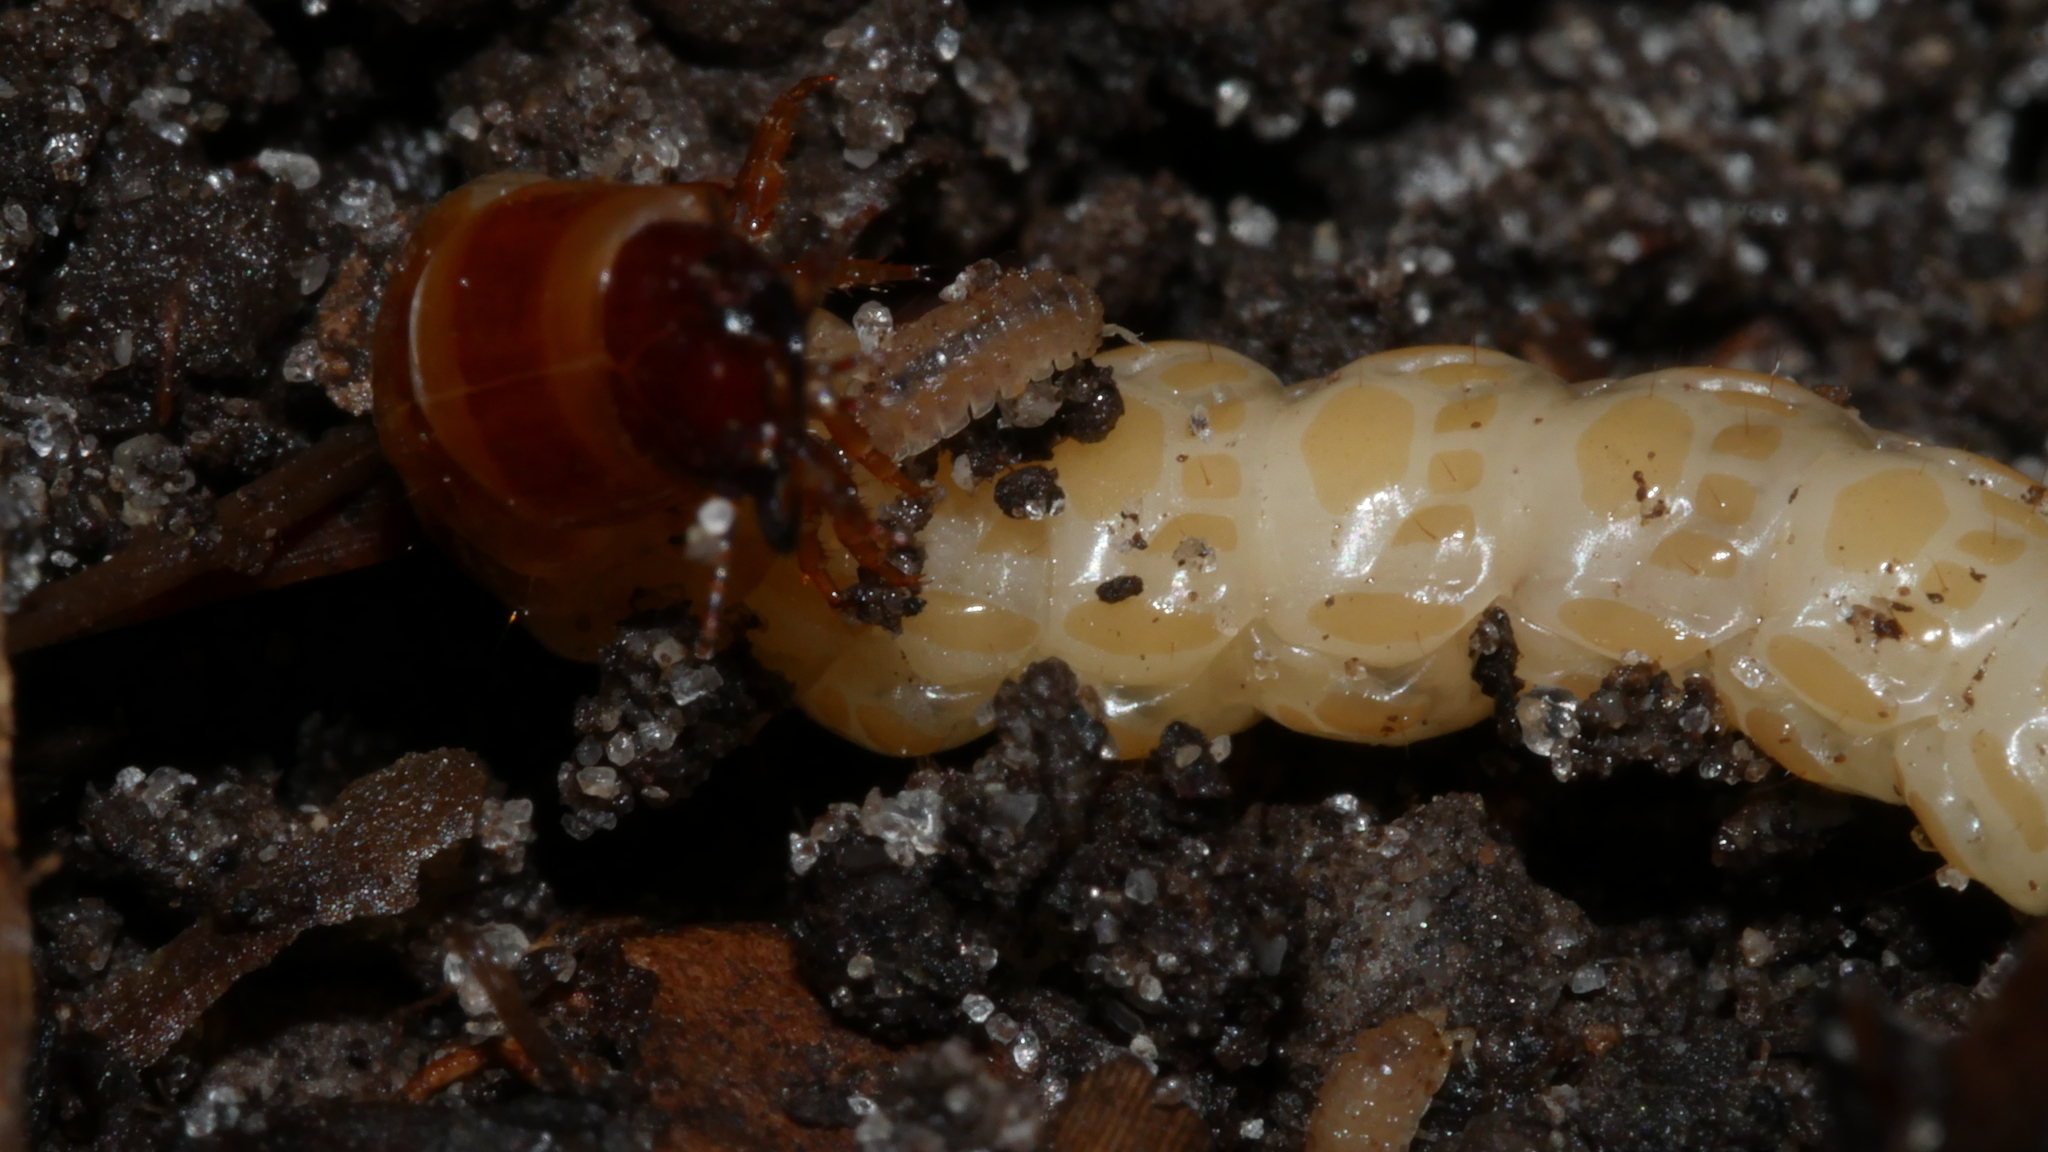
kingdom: Animalia
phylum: Arthropoda
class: Malacostraca
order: Isopoda
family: Trichoniscidae
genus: Haplophthalmus
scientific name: Haplophthalmus danicus
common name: Pillbug
